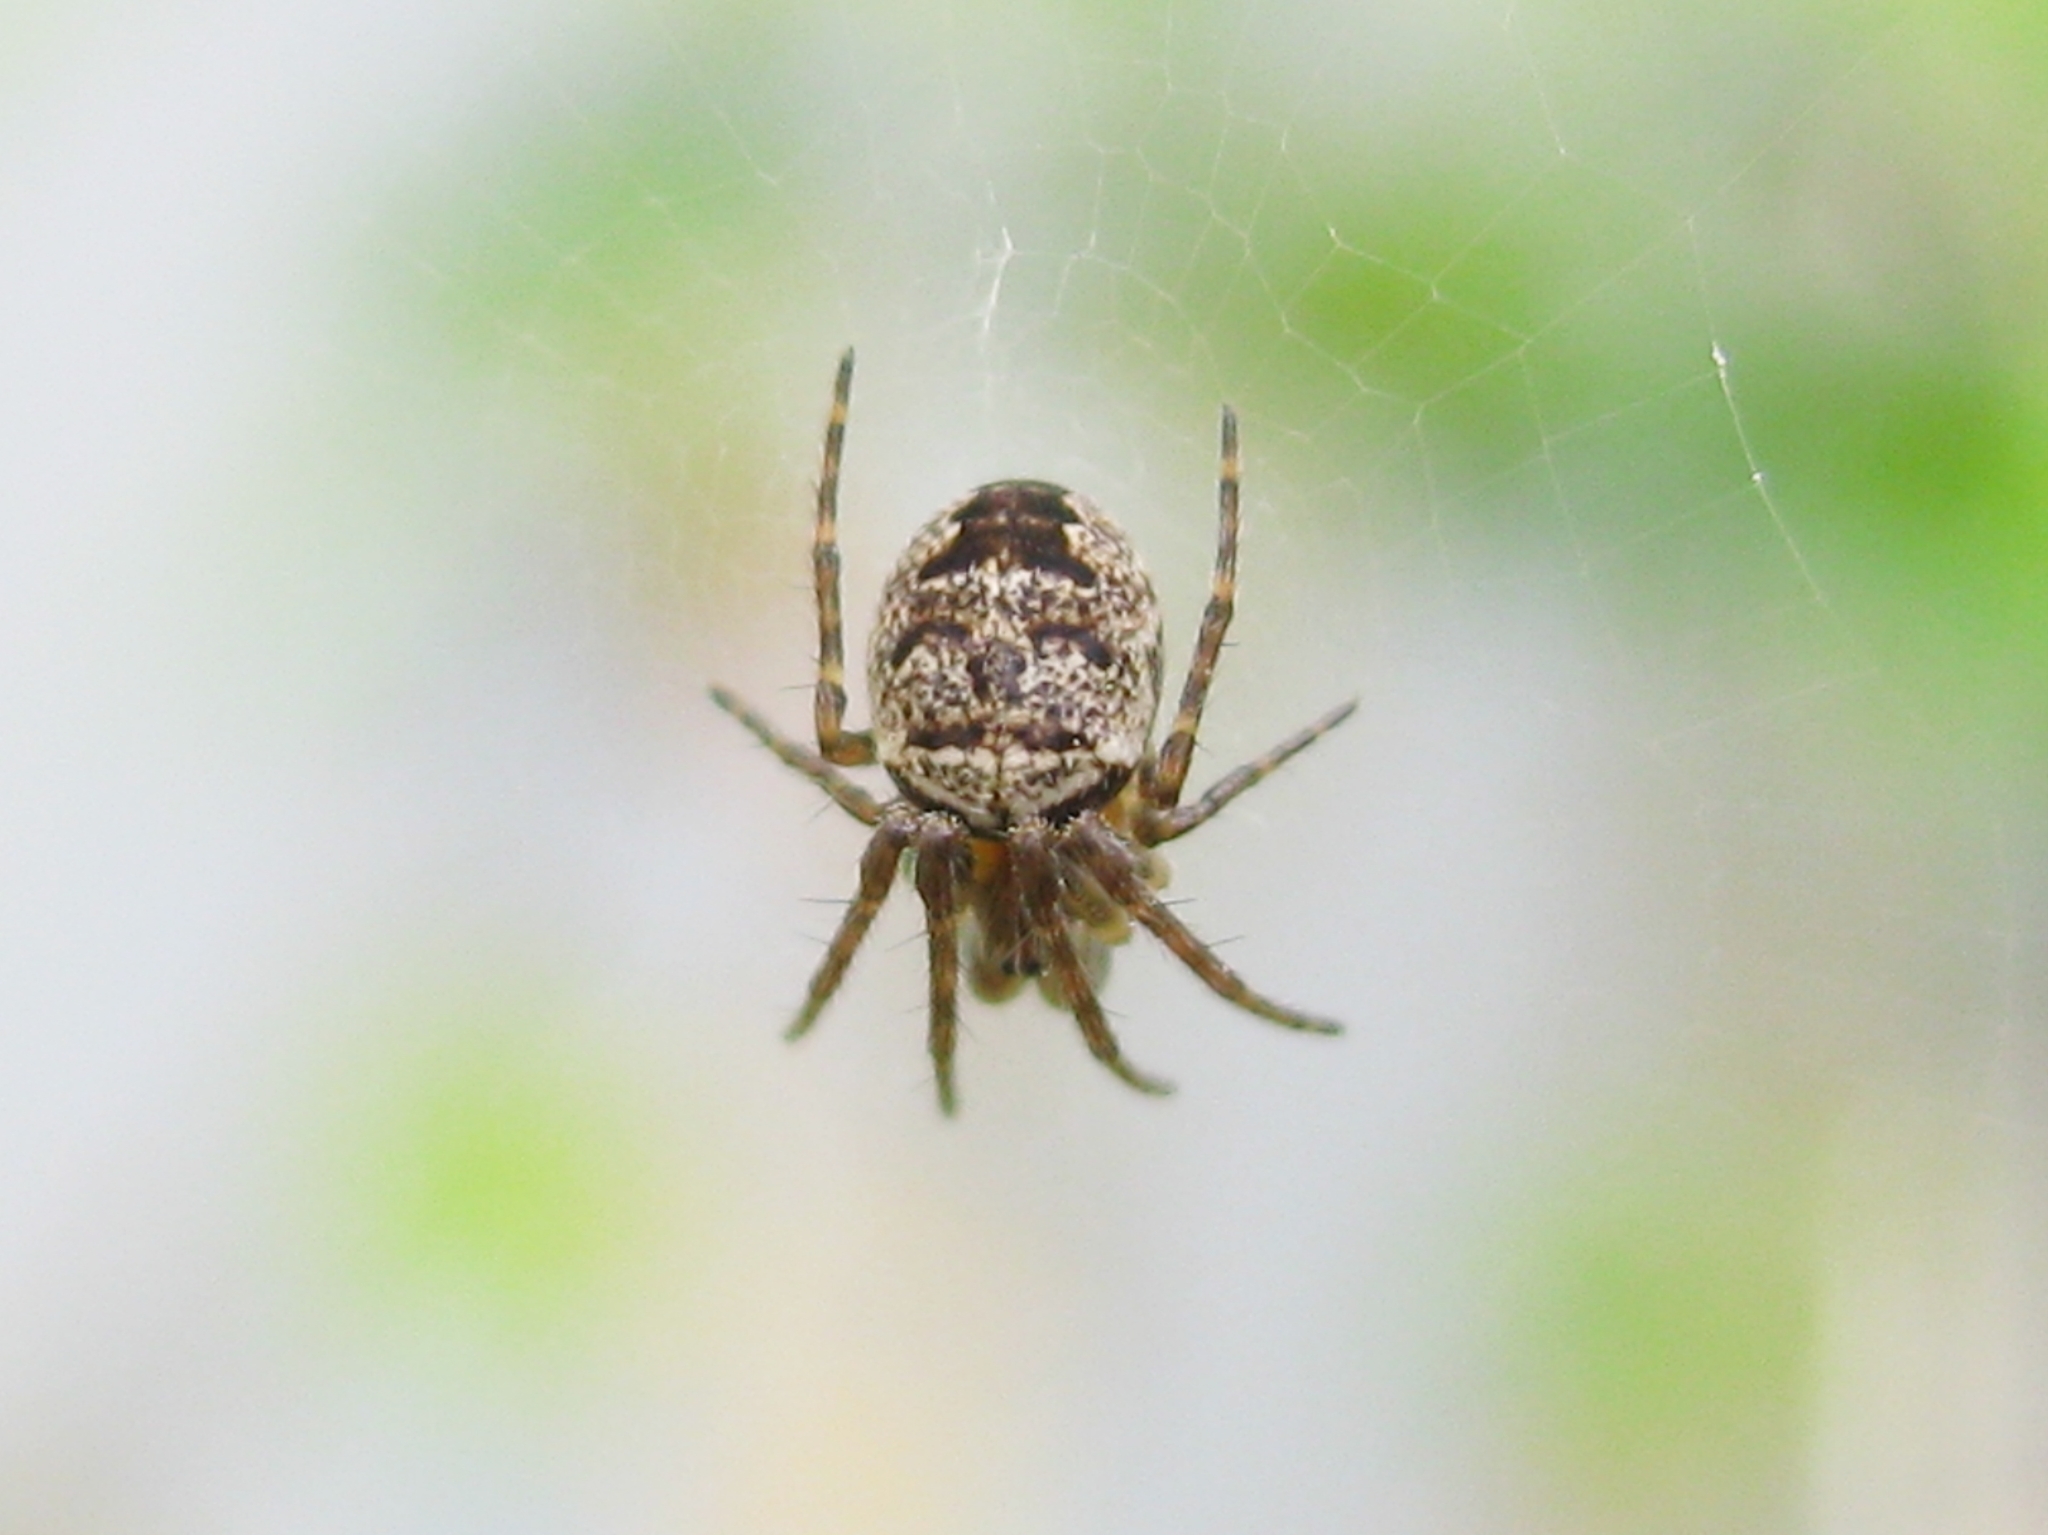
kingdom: Animalia
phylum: Arthropoda
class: Arachnida
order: Araneae
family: Araneidae
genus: Zilla
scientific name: Zilla diodia
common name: Zilla diodia
